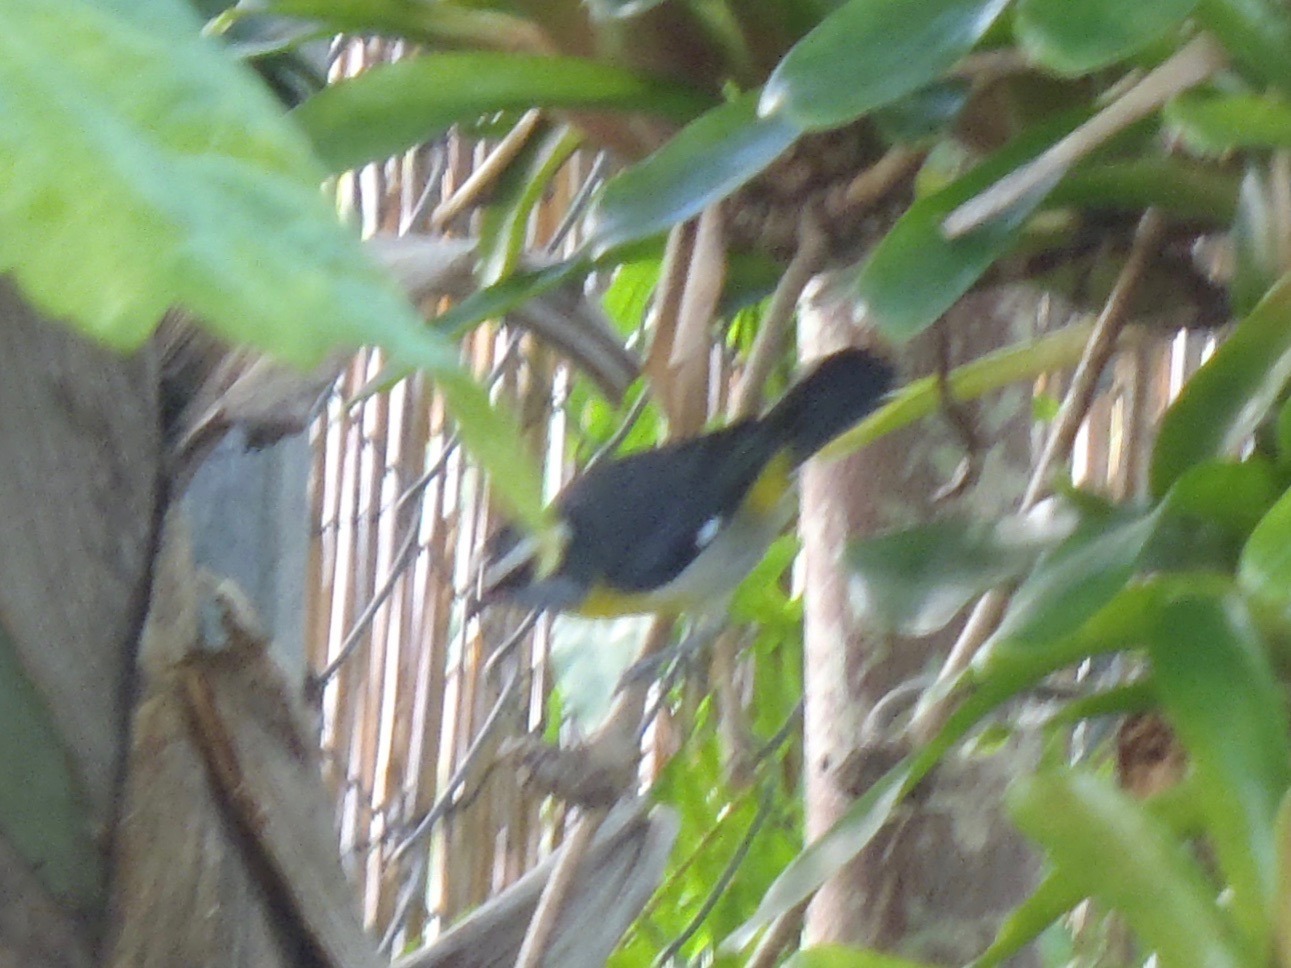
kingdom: Animalia
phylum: Chordata
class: Aves
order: Passeriformes
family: Thraupidae
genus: Coereba
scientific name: Coereba flaveola
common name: Bananaquit
